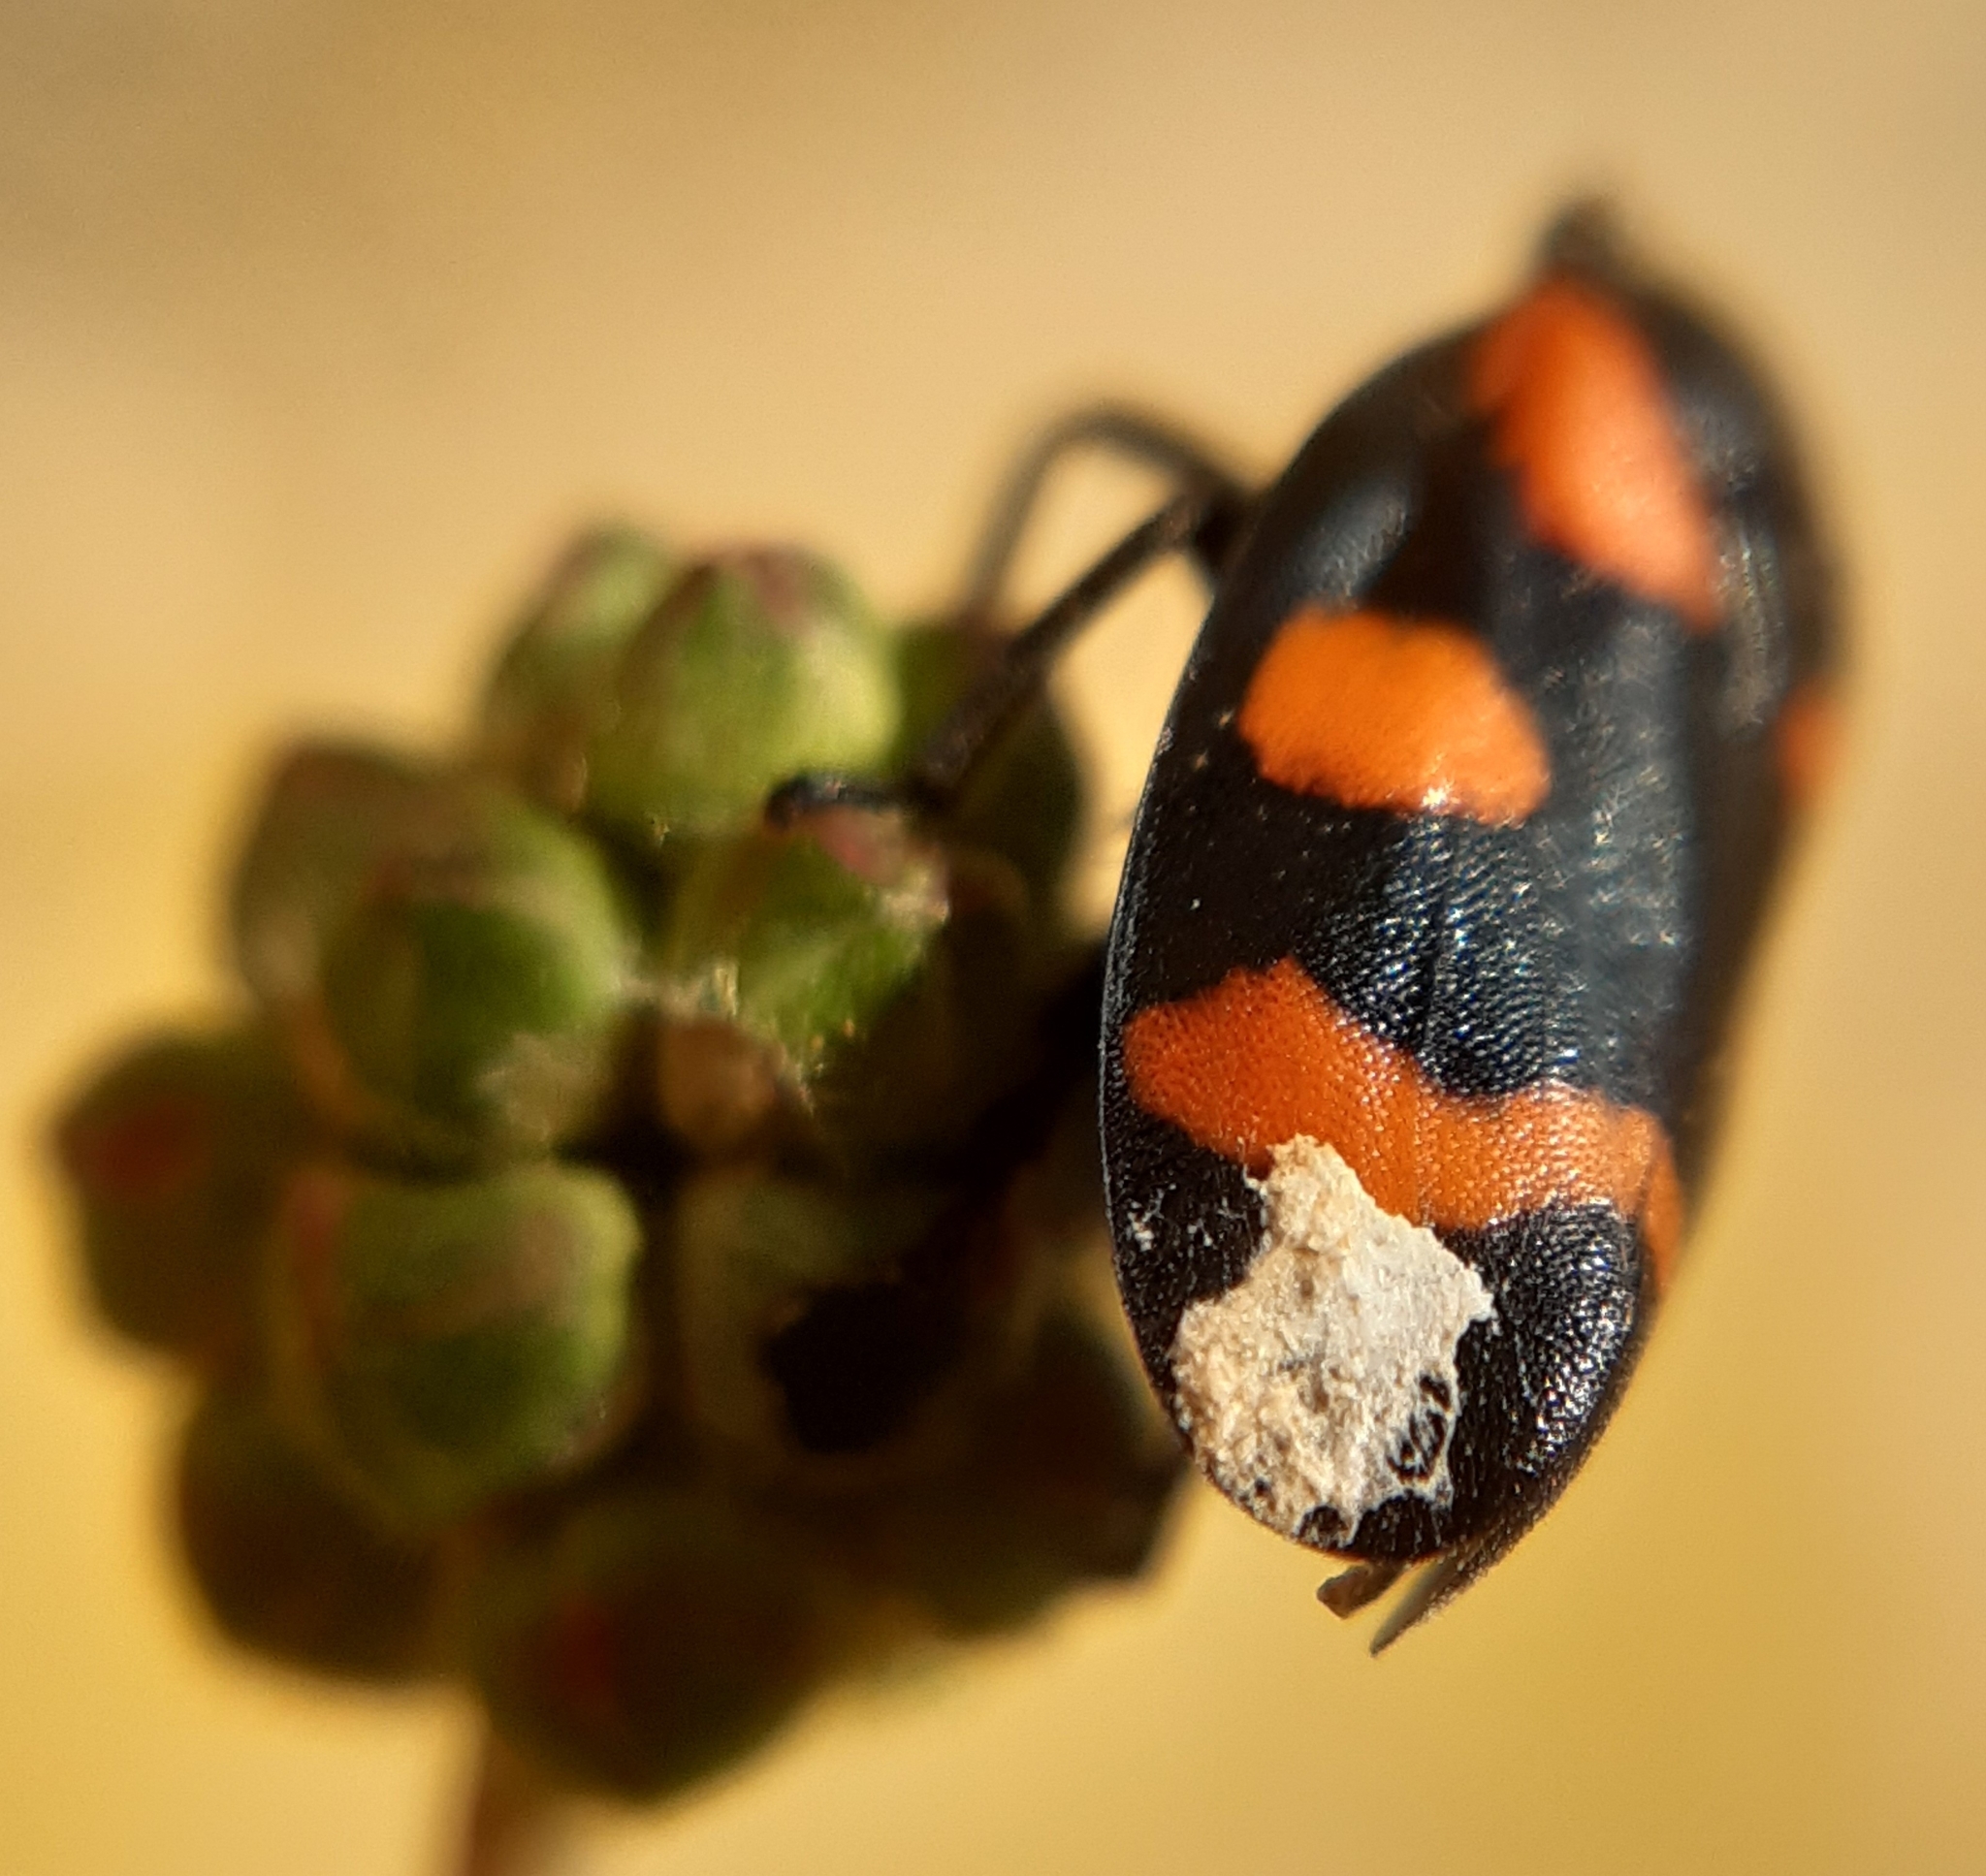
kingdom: Animalia
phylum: Arthropoda
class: Insecta
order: Hemiptera
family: Cercopidae
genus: Cercopis
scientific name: Cercopis sanguinolenta
